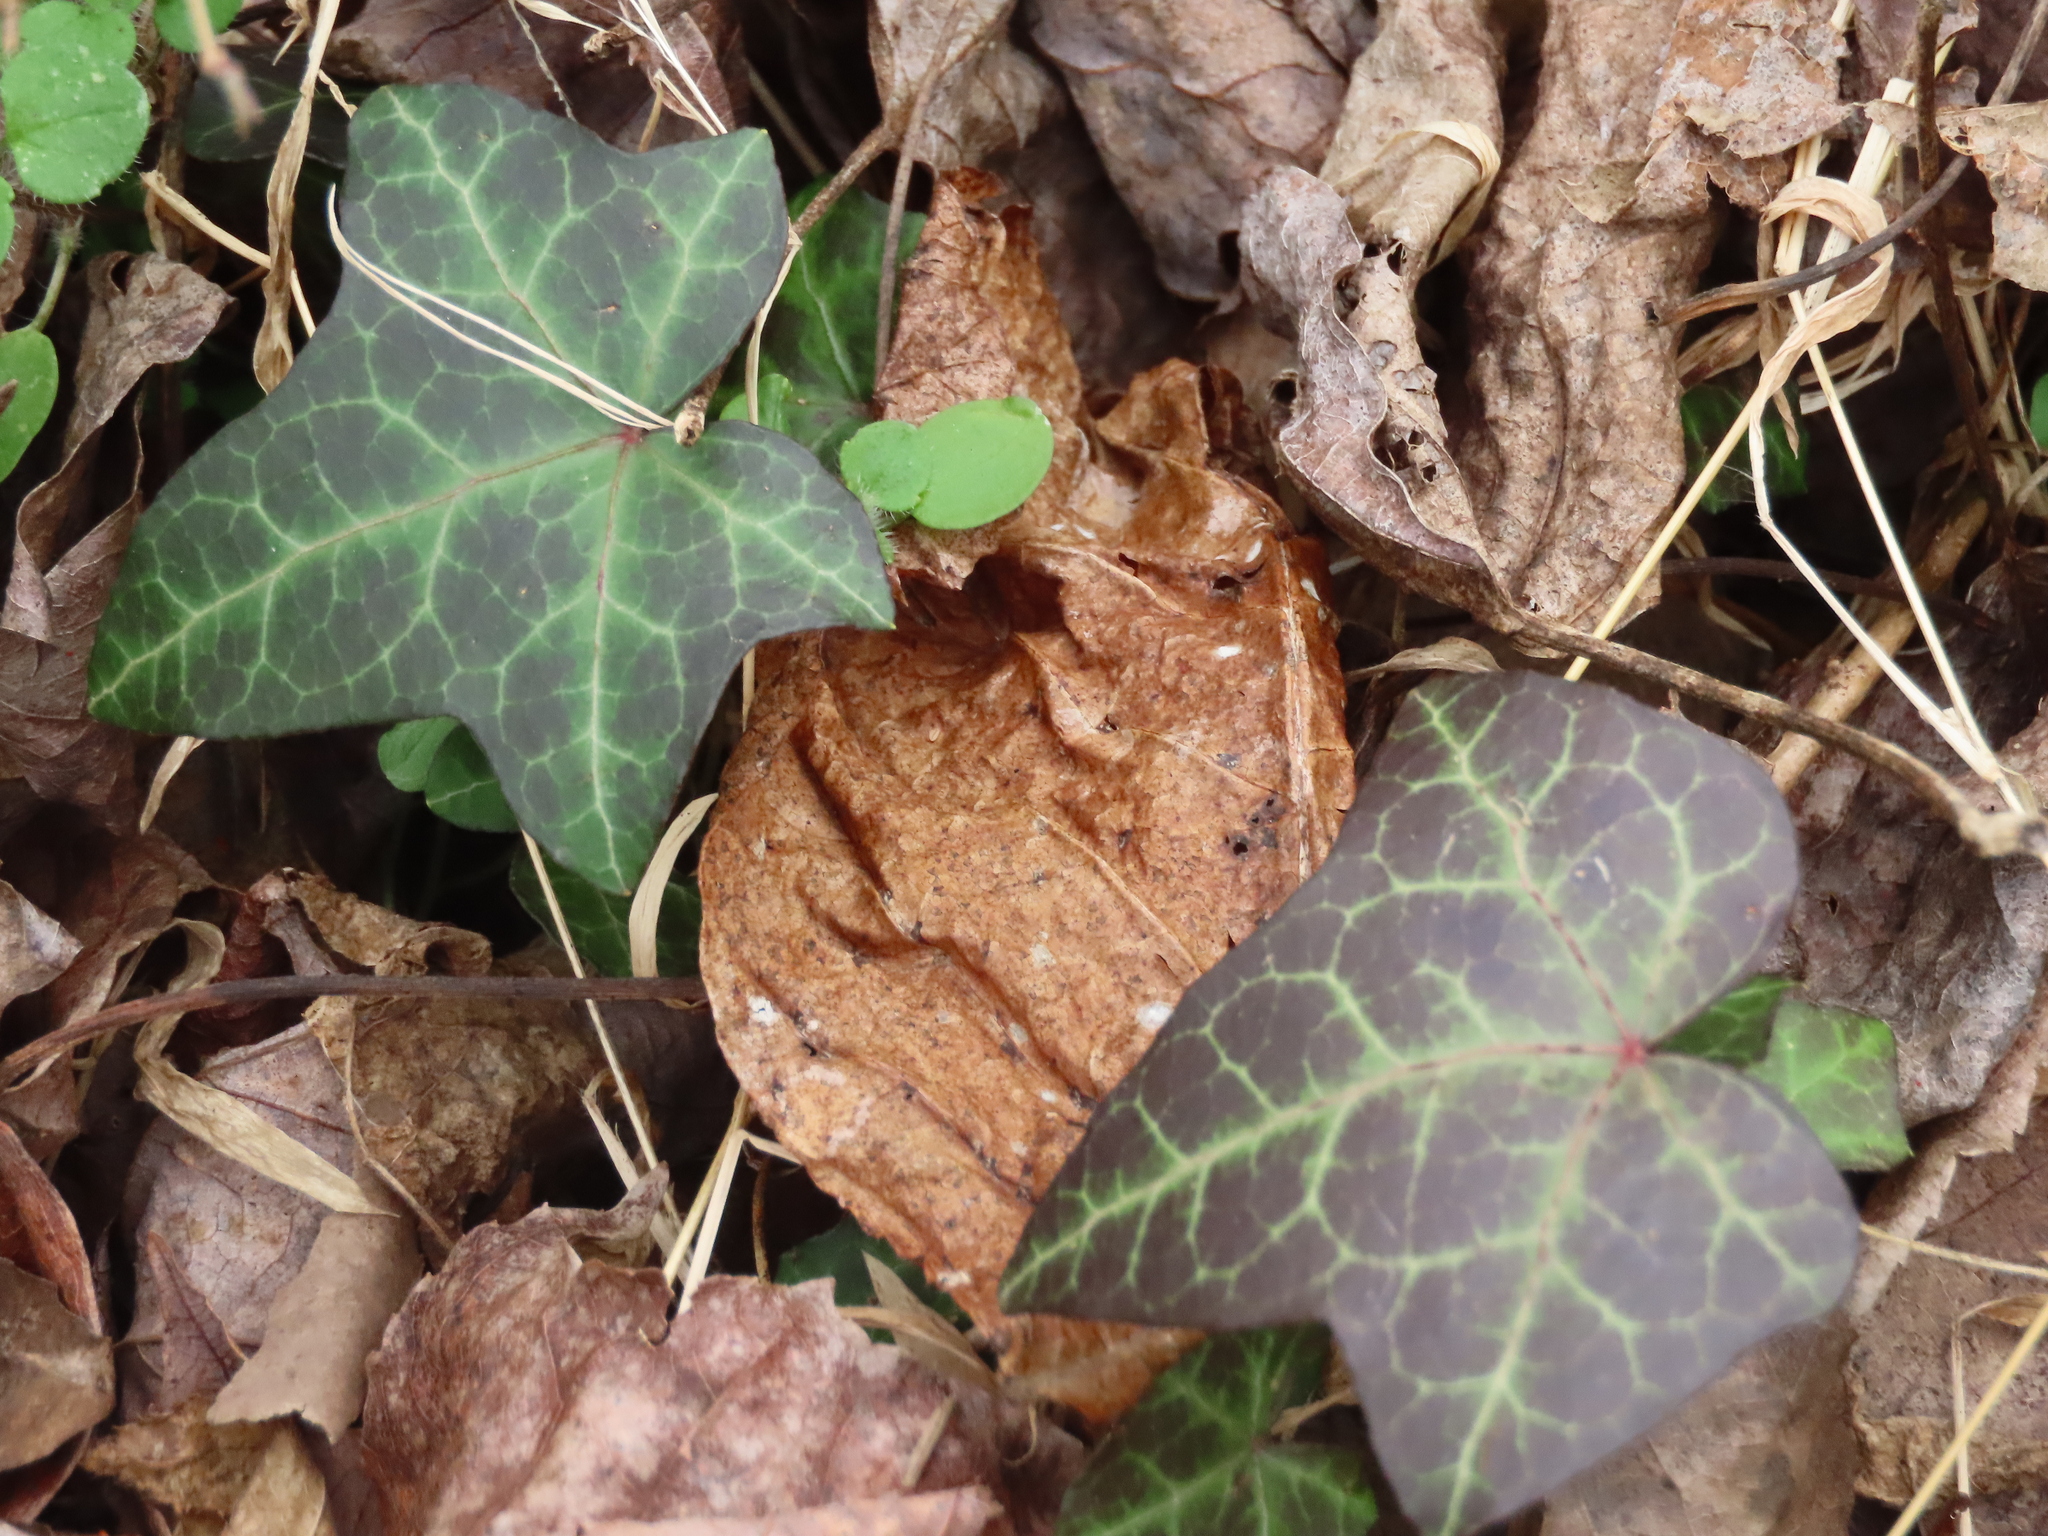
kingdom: Plantae
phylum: Tracheophyta
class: Magnoliopsida
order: Apiales
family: Araliaceae
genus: Hedera
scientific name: Hedera helix
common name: Ivy
